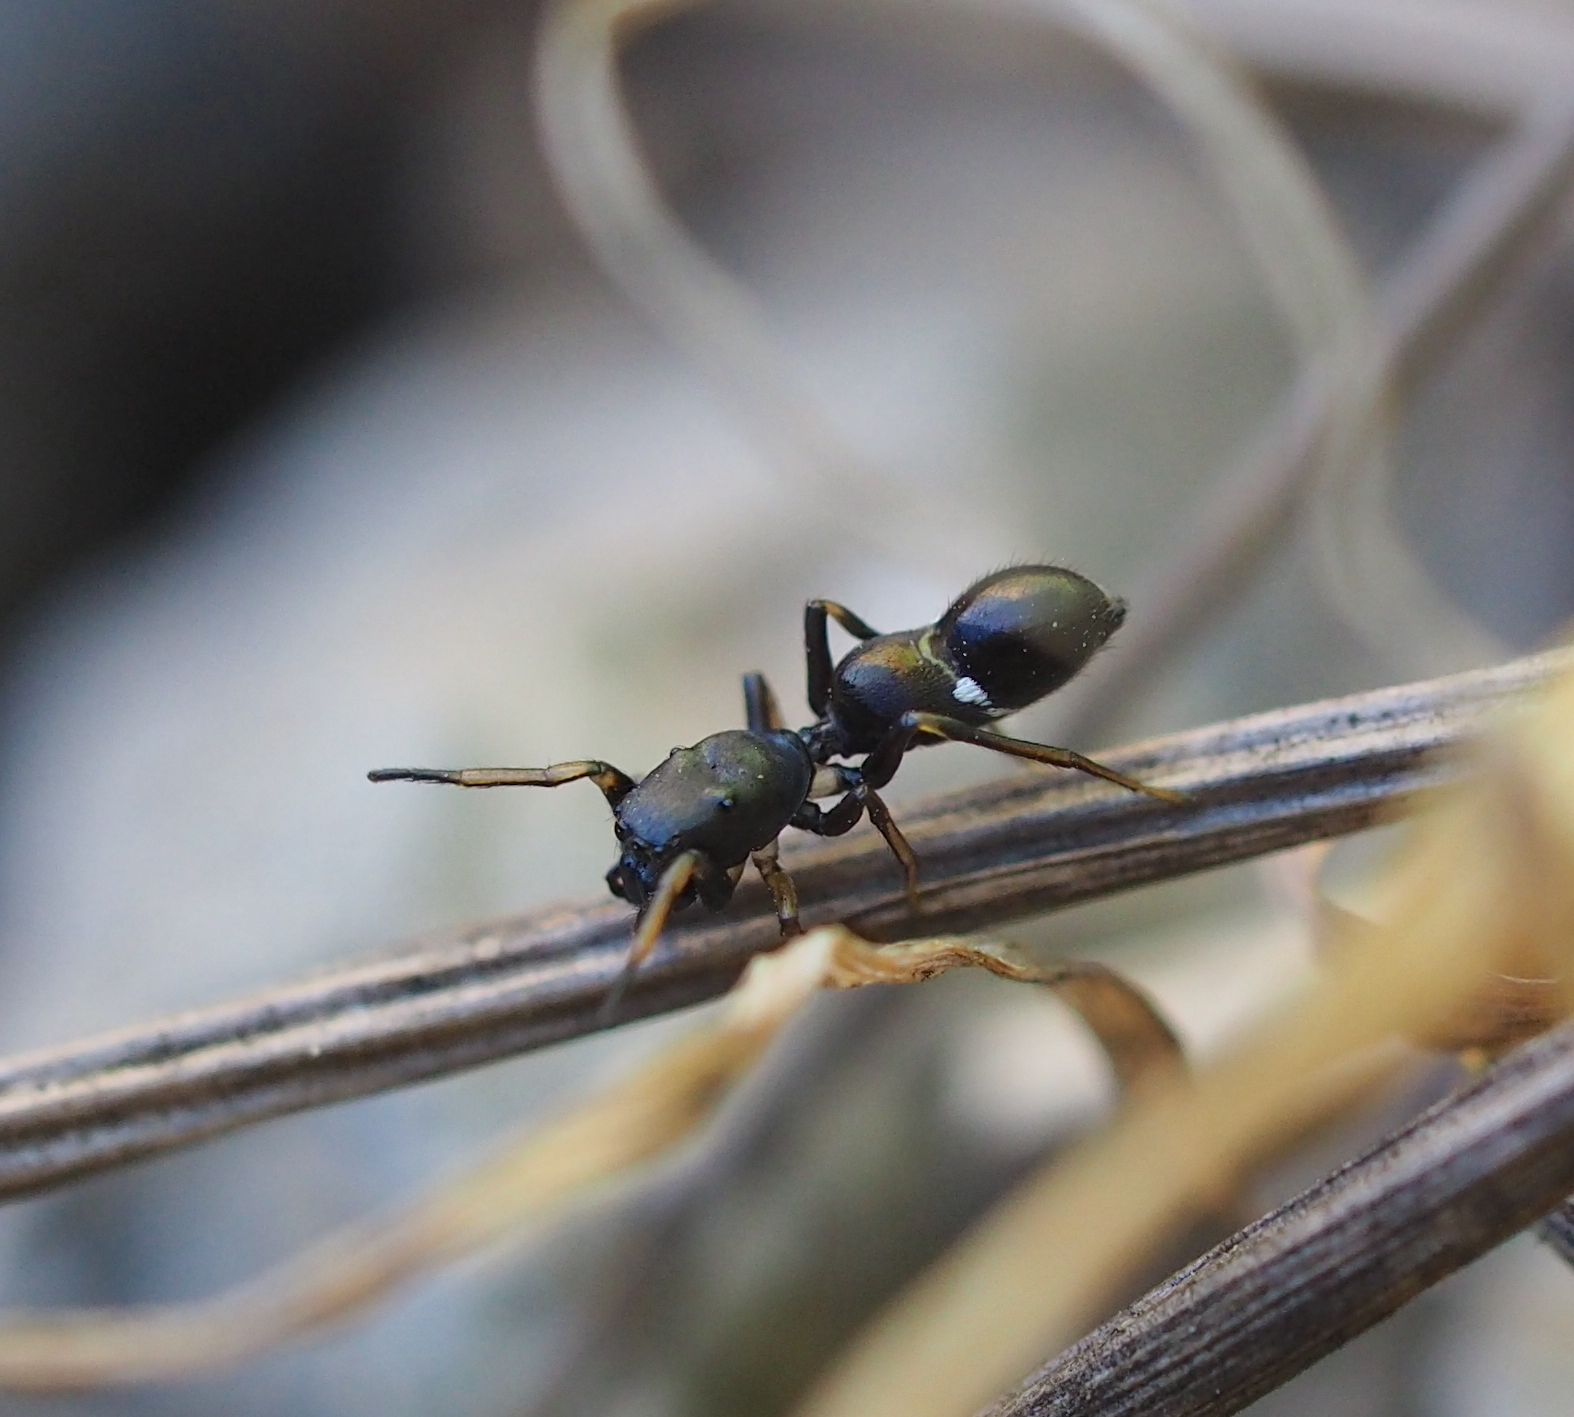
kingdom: Animalia
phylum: Arthropoda
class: Arachnida
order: Araneae
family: Salticidae
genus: Leptorchestes
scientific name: Leptorchestes berolinensis
